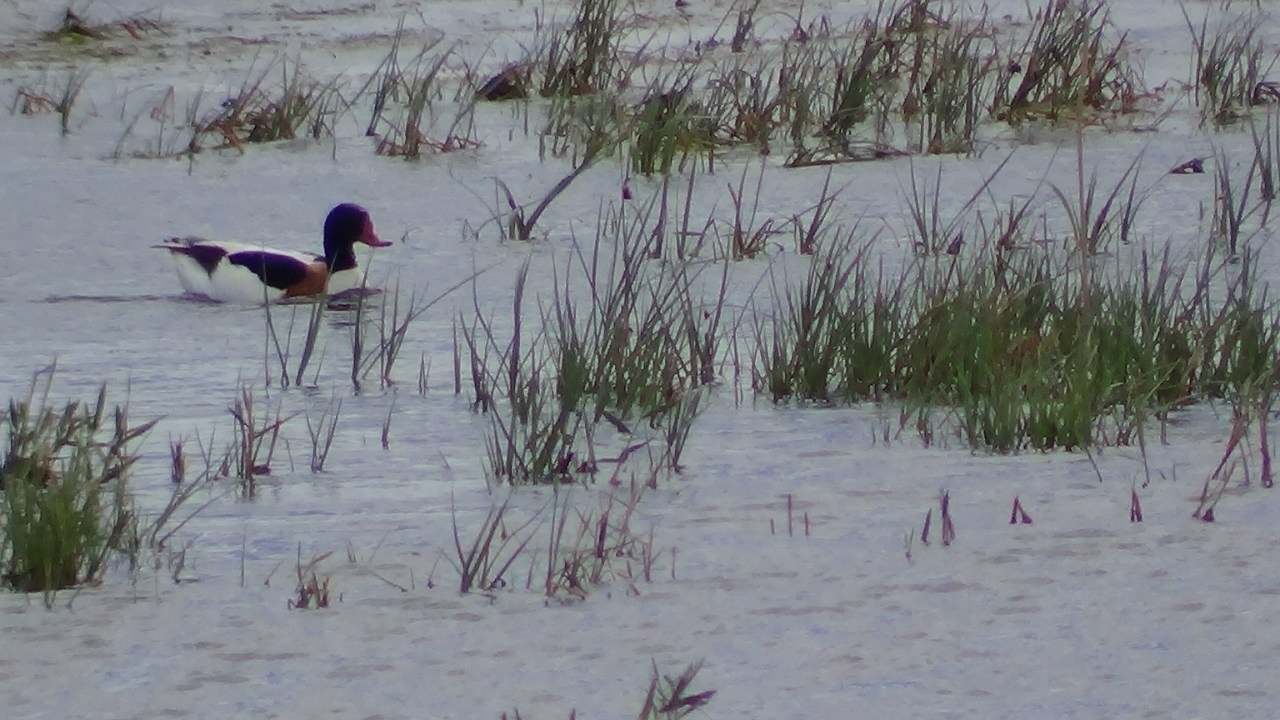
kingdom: Animalia
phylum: Chordata
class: Aves
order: Anseriformes
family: Anatidae
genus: Tadorna
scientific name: Tadorna tadorna
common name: Common shelduck
